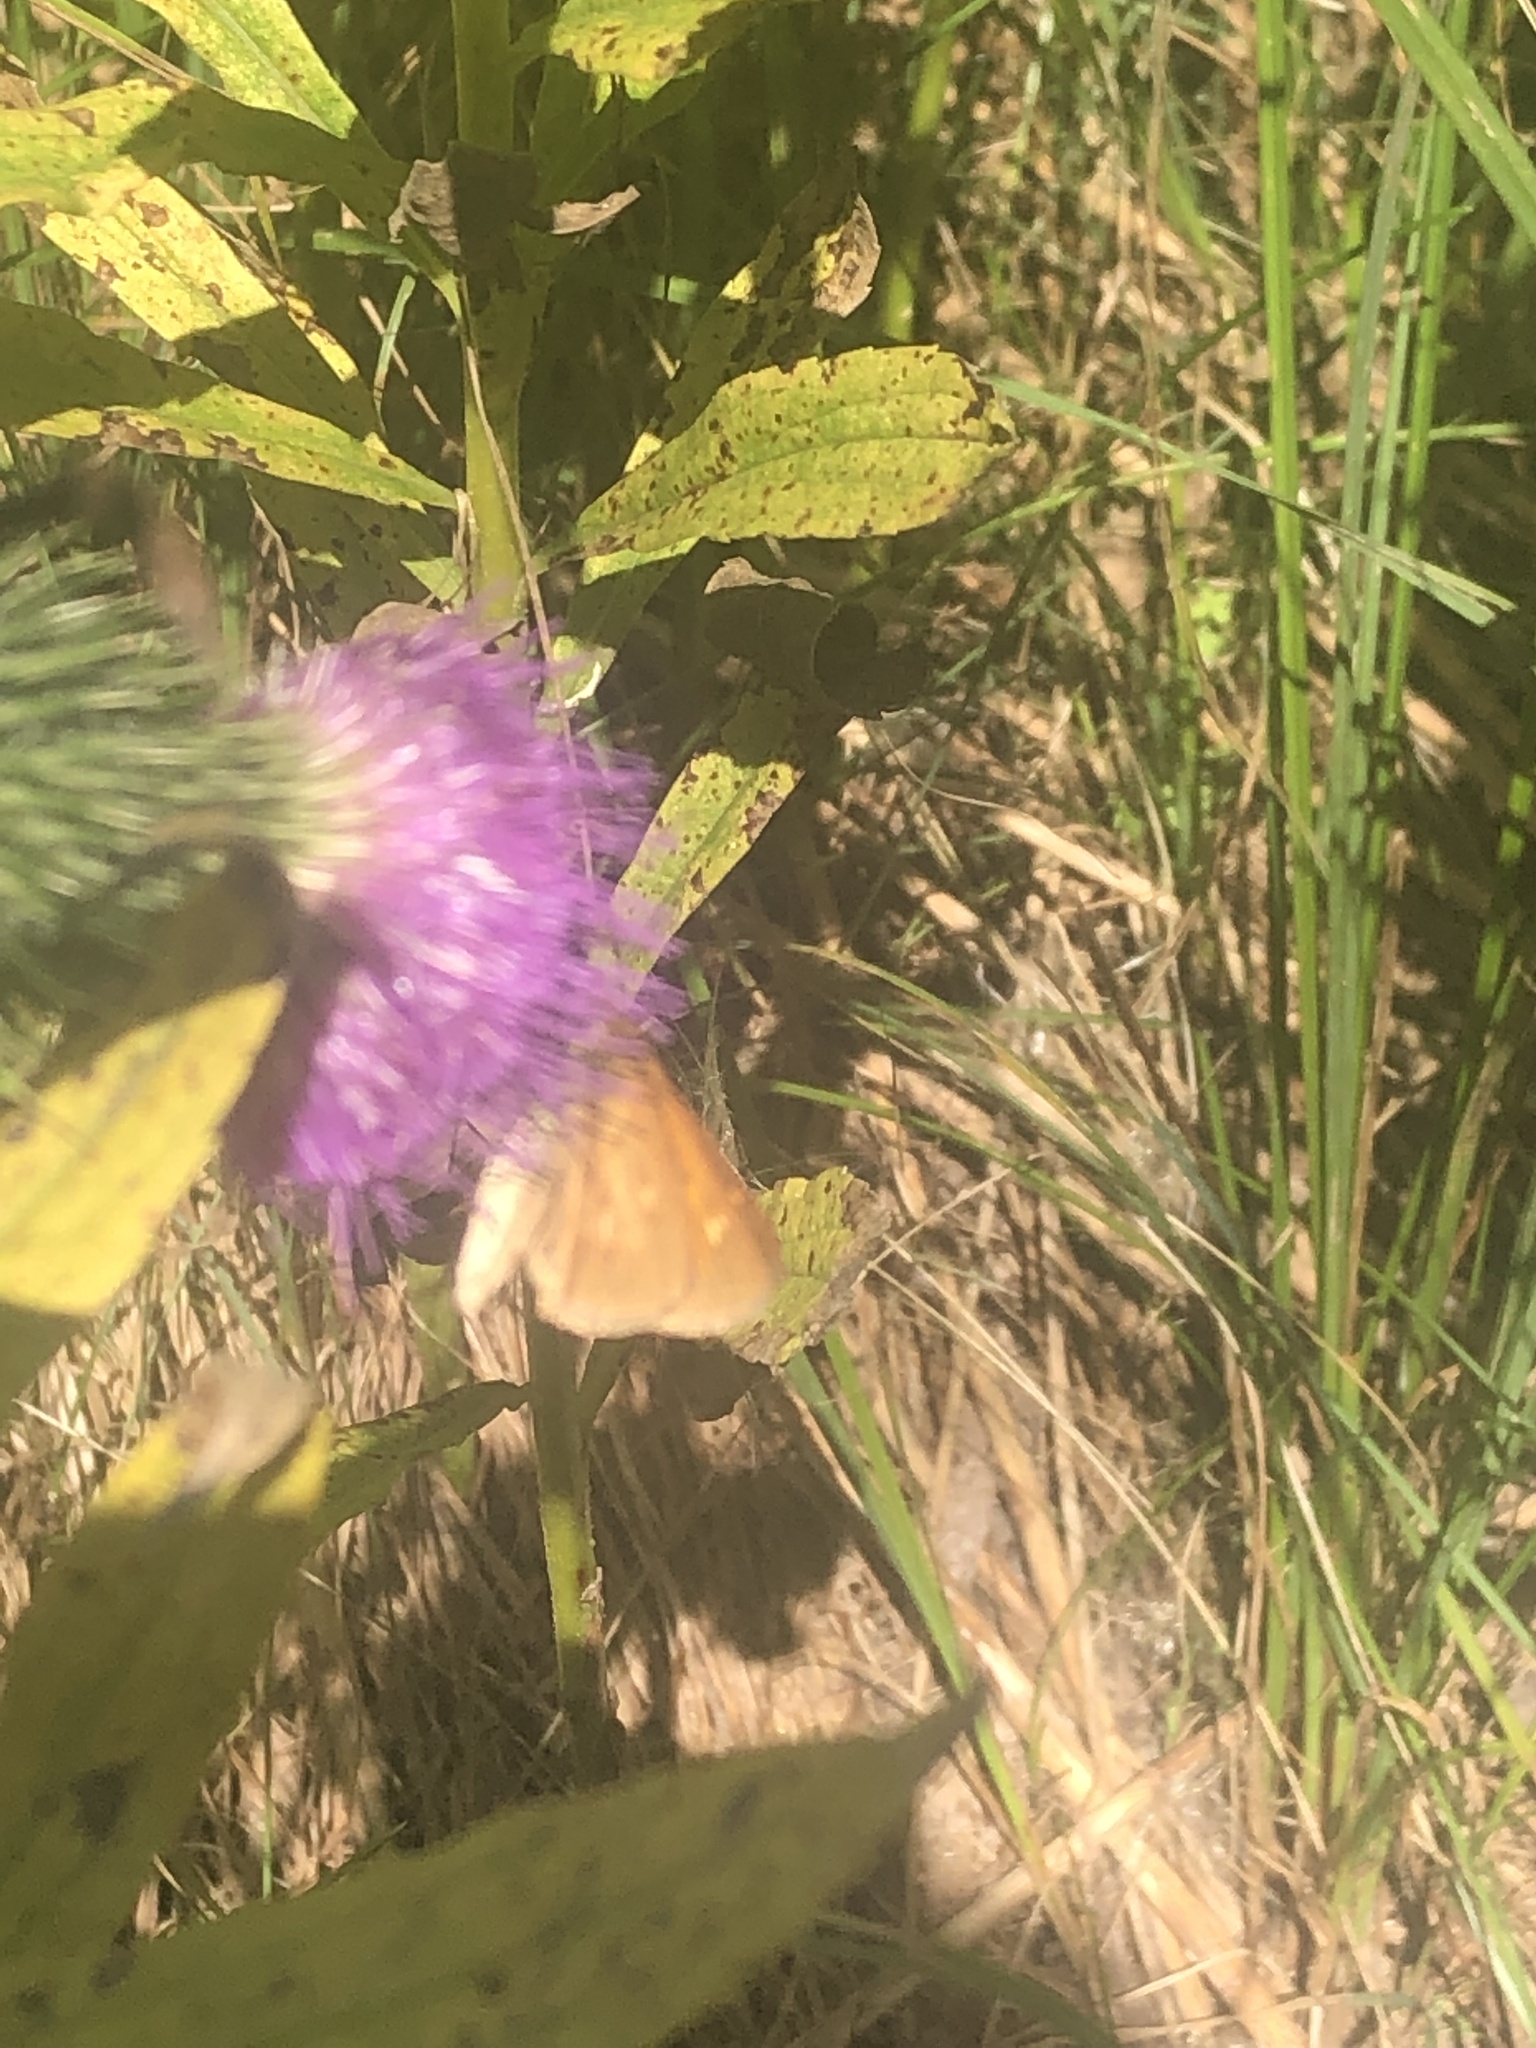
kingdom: Animalia
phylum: Arthropoda
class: Insecta
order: Lepidoptera
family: Hesperiidae
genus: Poanes
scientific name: Poanes viator
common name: Broad-winged skipper
